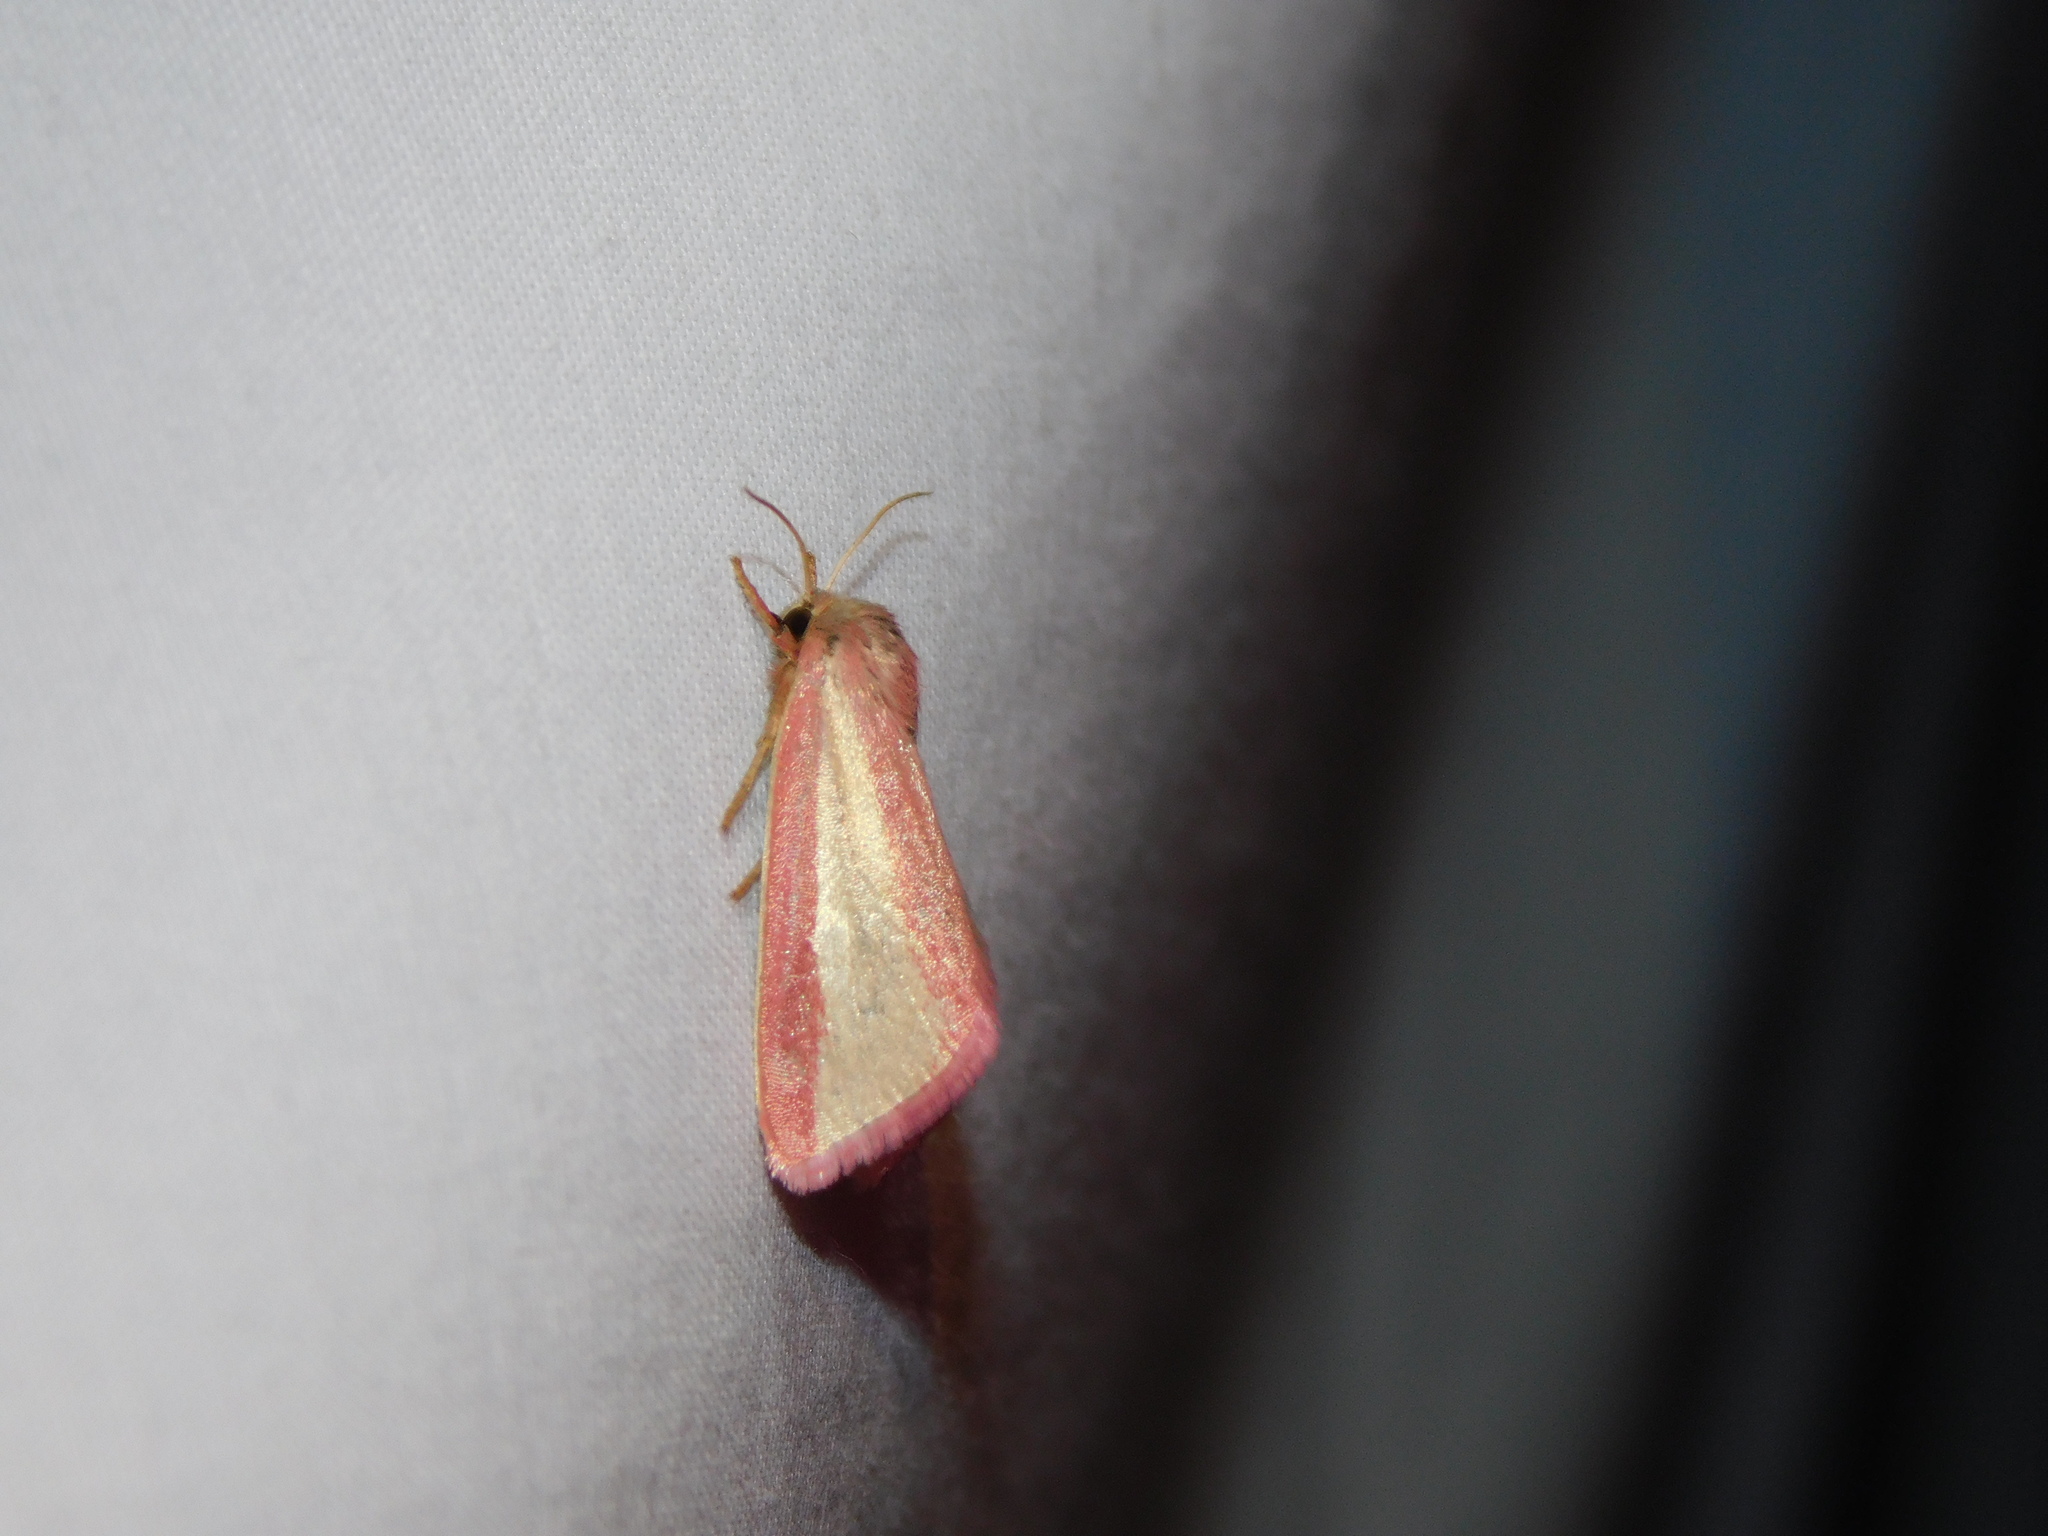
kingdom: Animalia
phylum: Arthropoda
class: Insecta
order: Lepidoptera
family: Noctuidae
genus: Adisura
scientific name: Adisura marginalis
